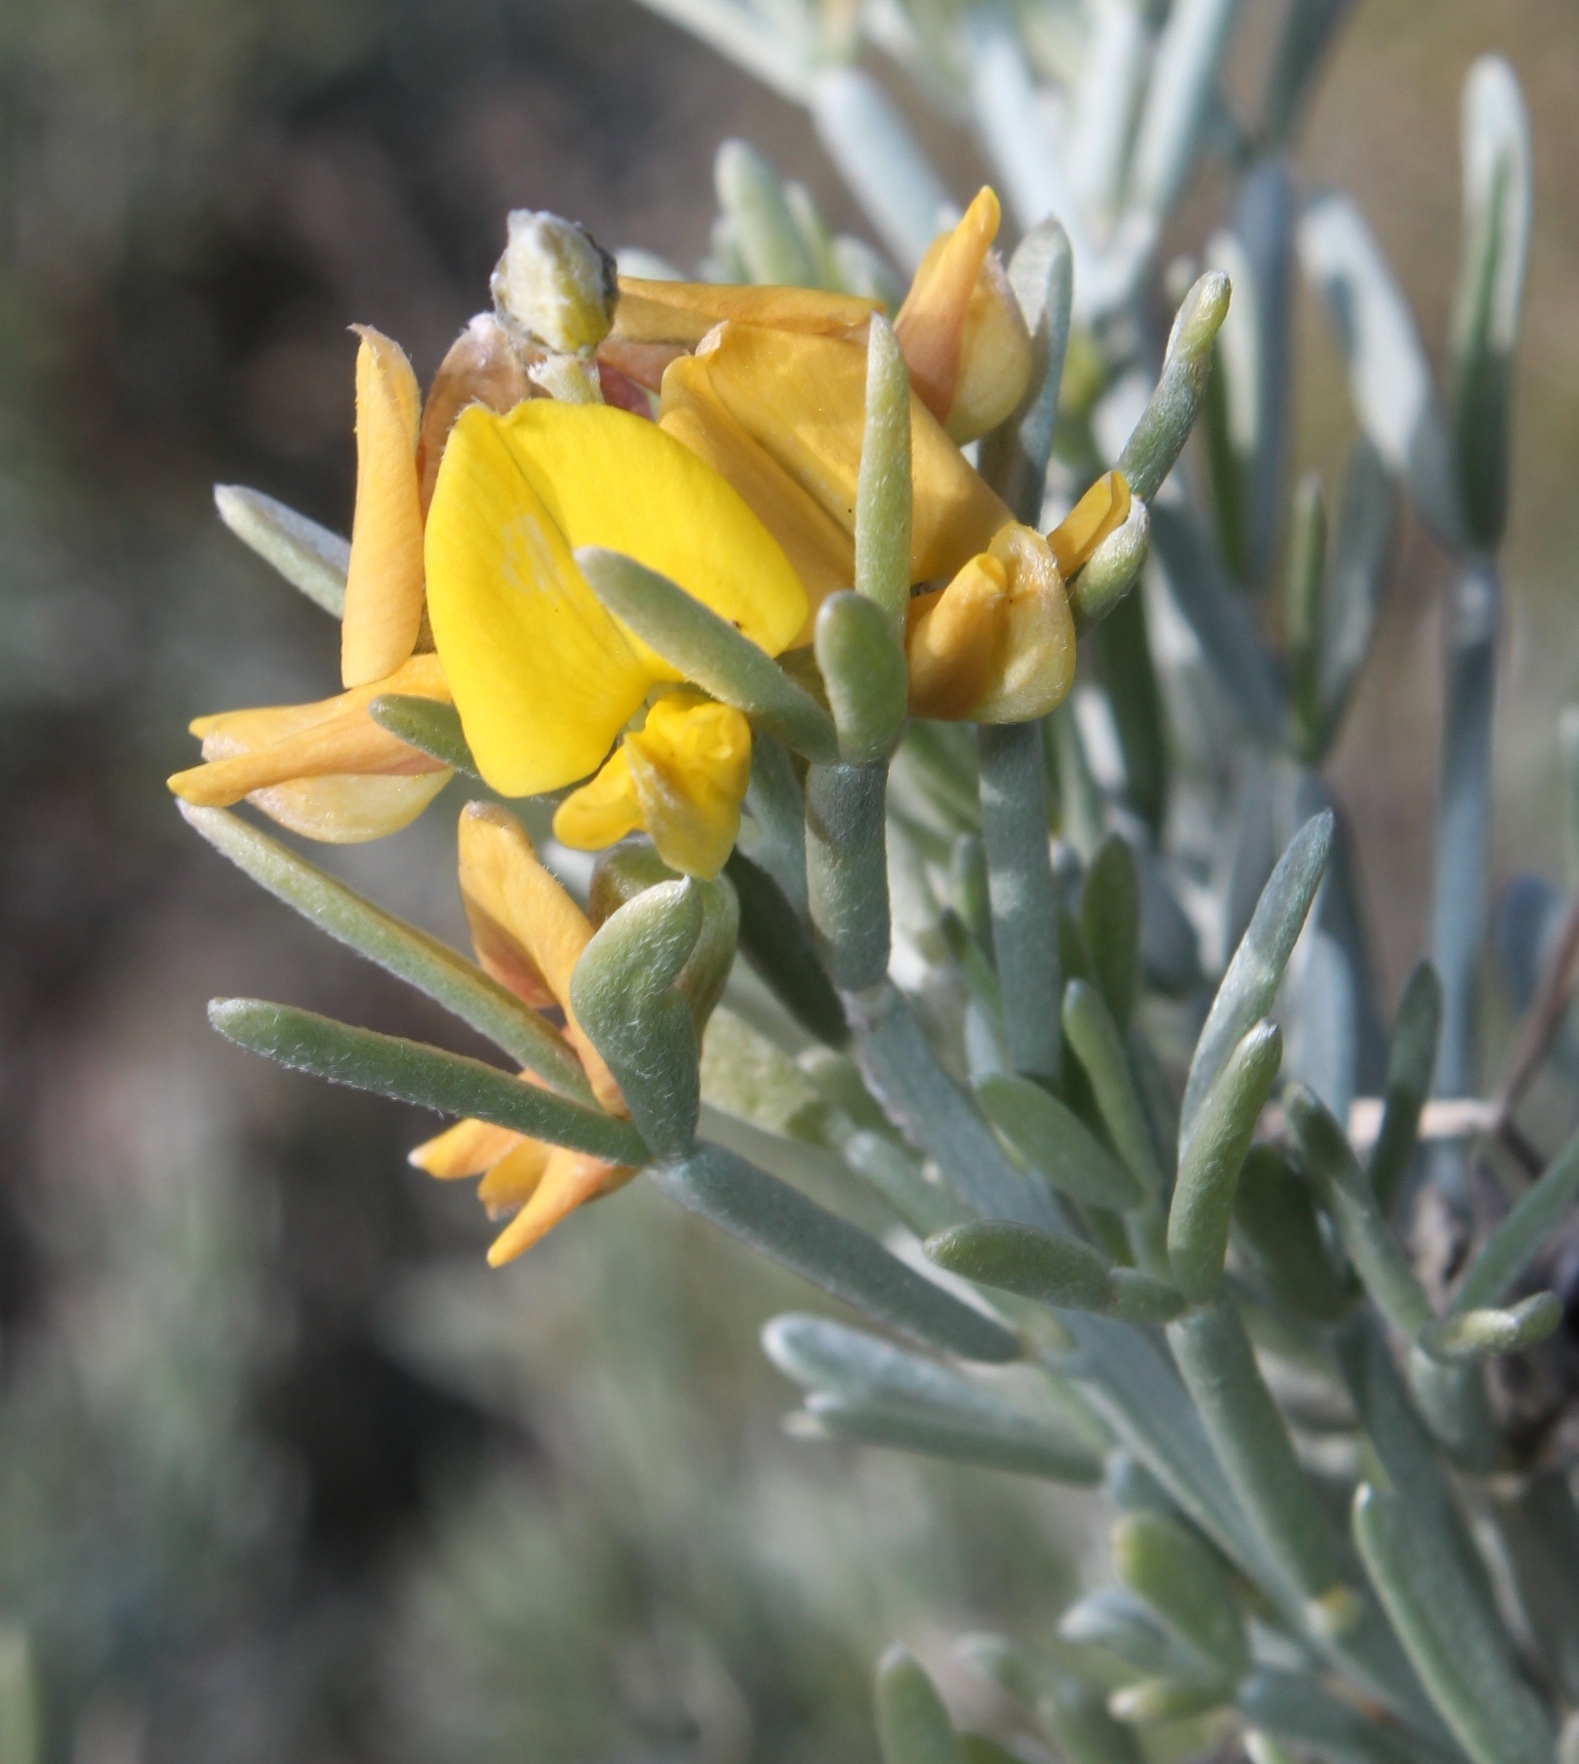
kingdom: Plantae
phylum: Tracheophyta
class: Magnoliopsida
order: Fabales
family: Fabaceae
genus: Calobota
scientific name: Calobota sericea
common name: Silver-pea
